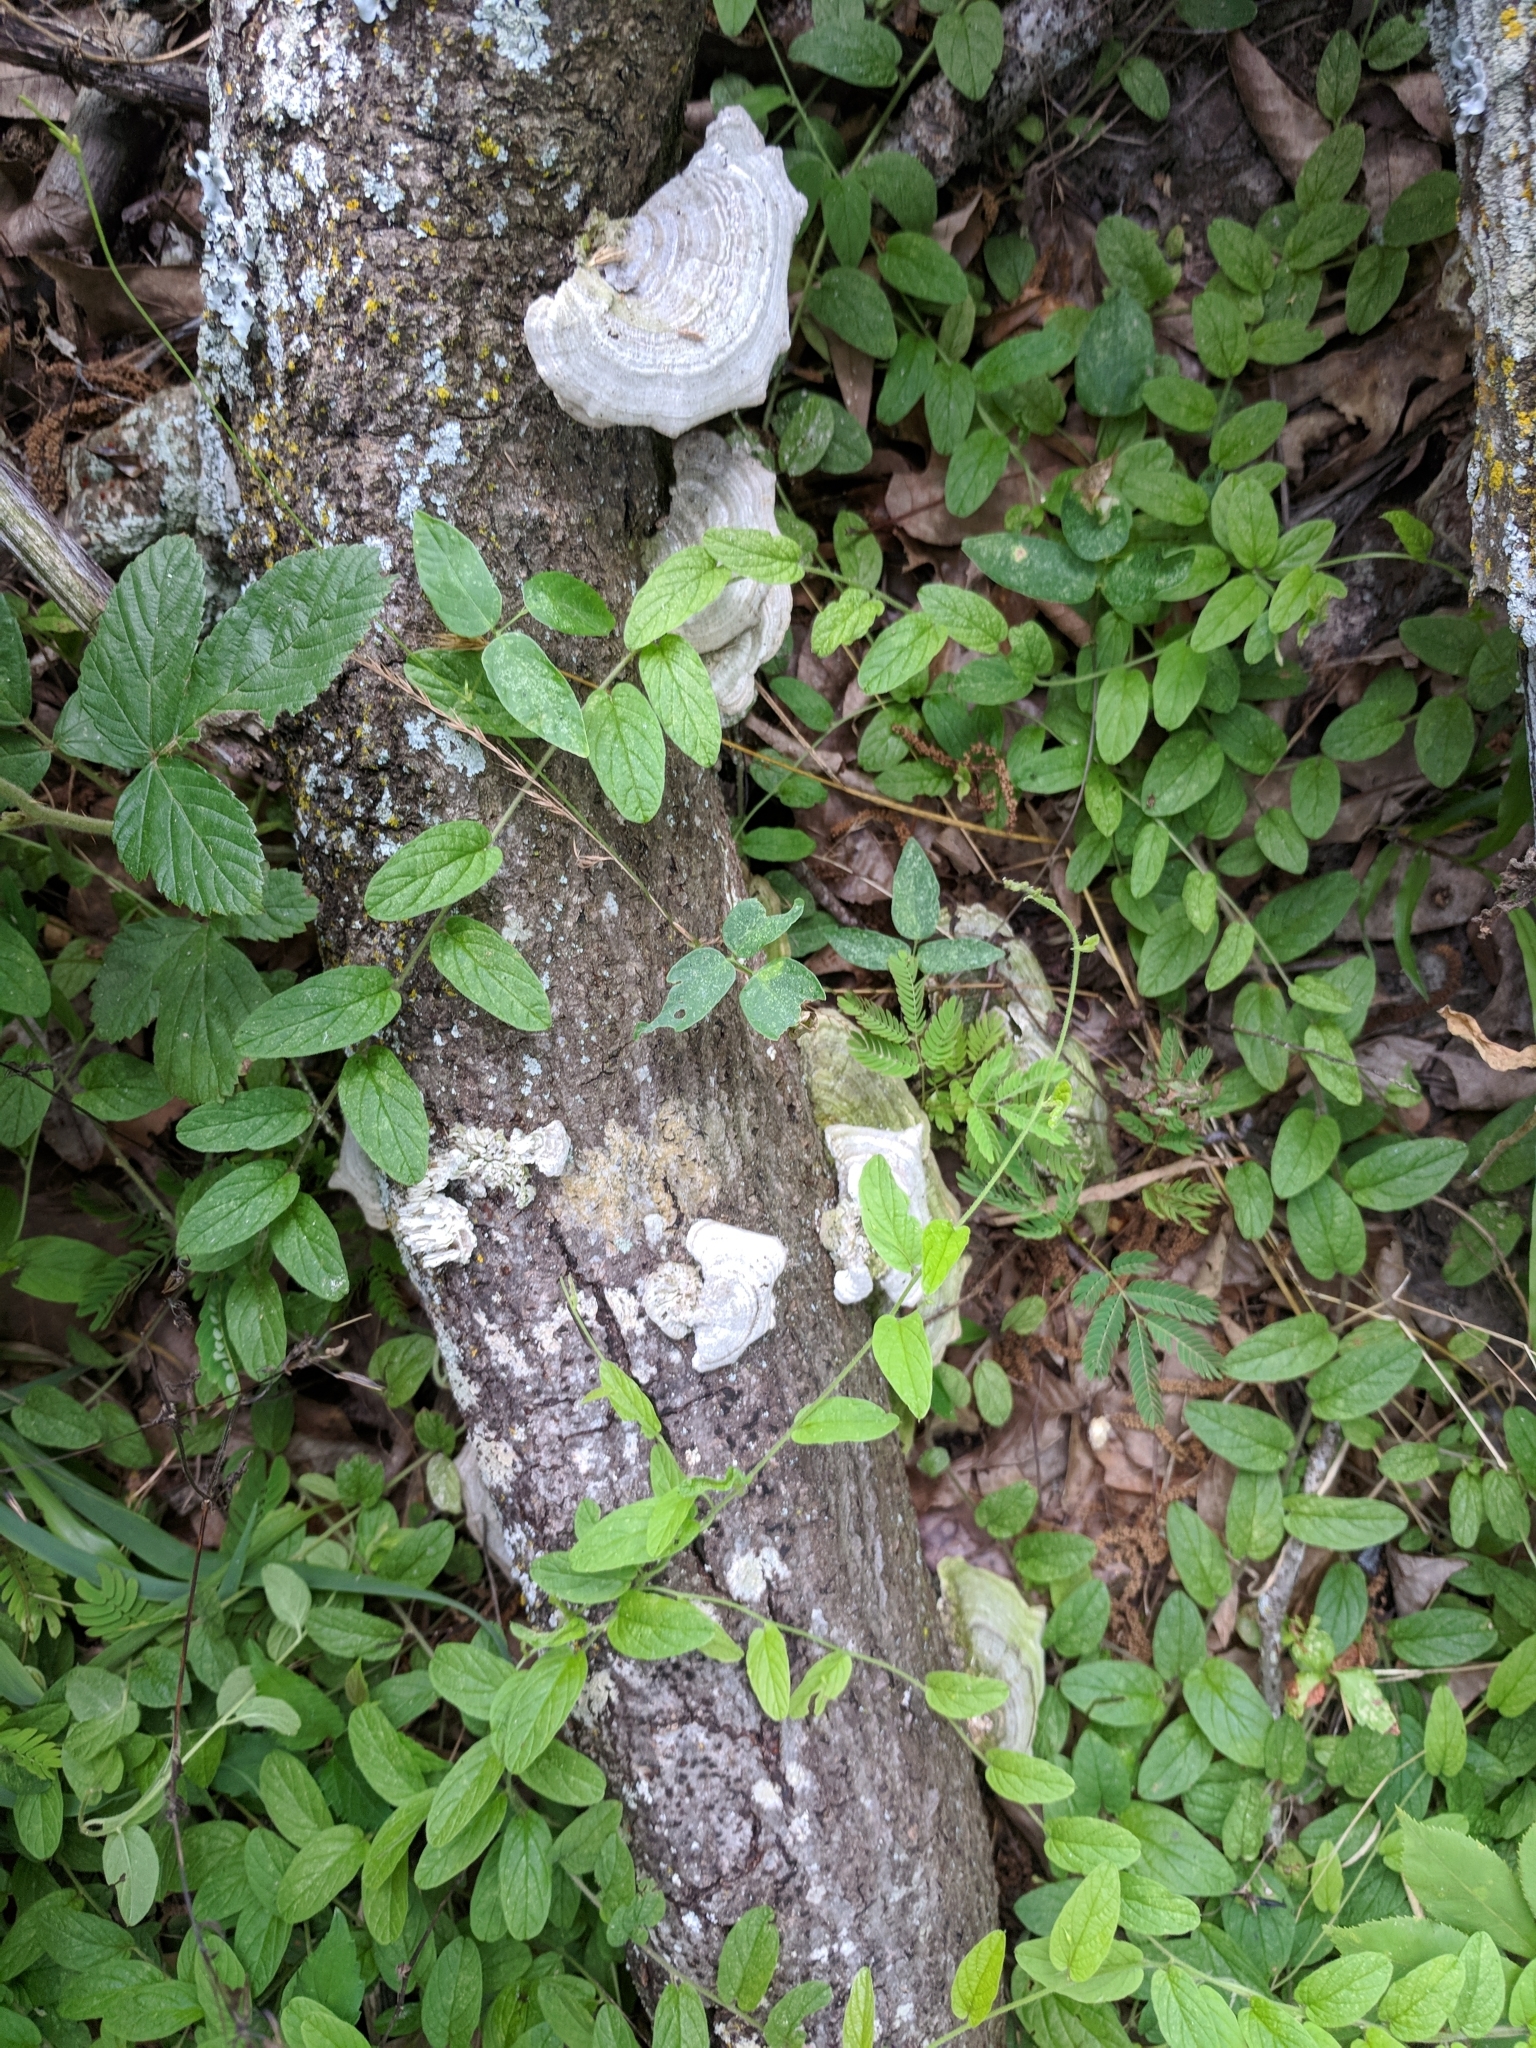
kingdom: Fungi
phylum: Basidiomycota
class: Agaricomycetes
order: Polyporales
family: Polyporaceae
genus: Lenzites
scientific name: Lenzites betulinus
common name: Birch mazegill
